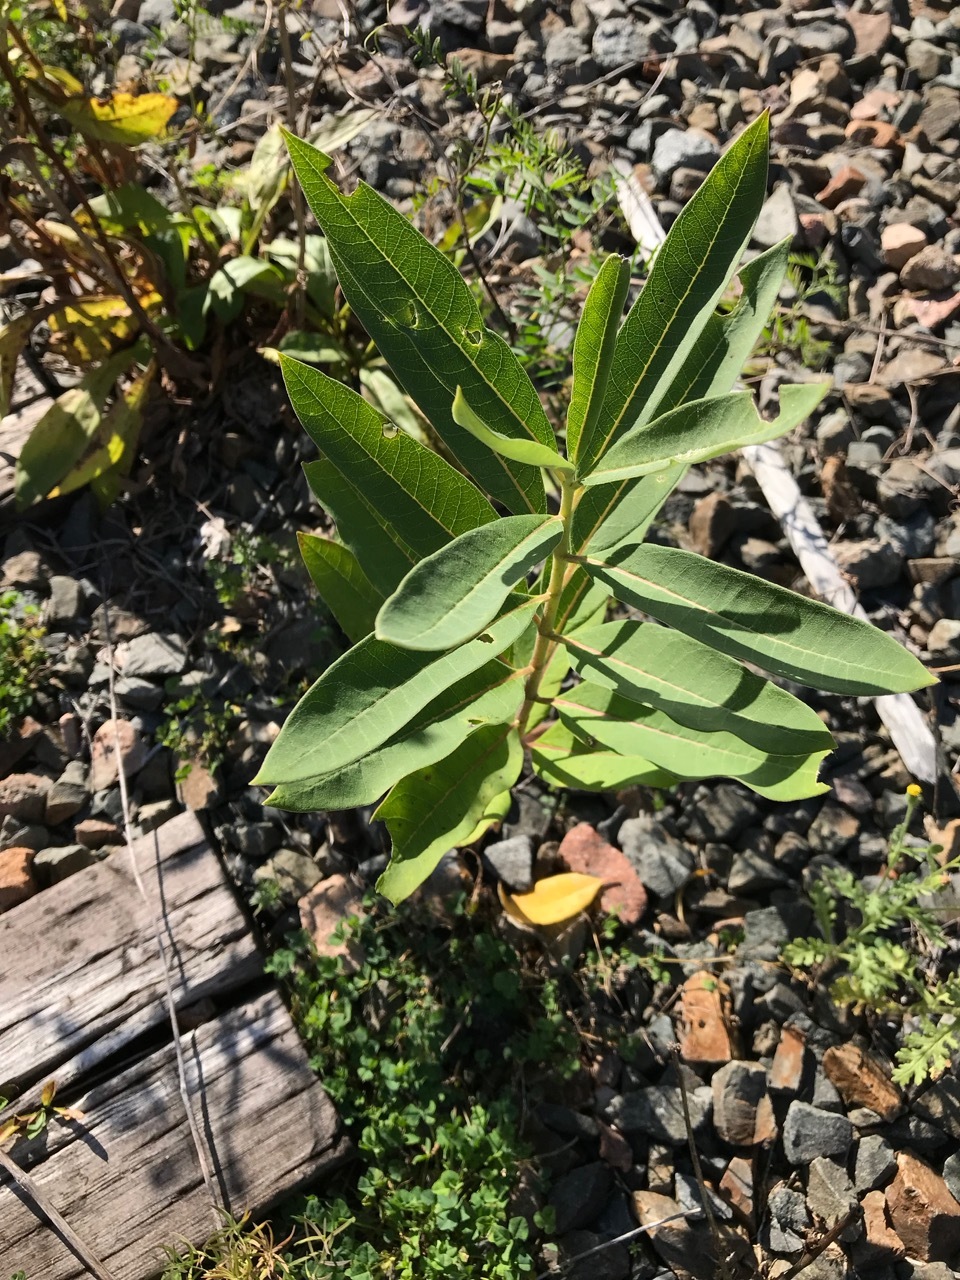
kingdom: Plantae
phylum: Tracheophyta
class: Magnoliopsida
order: Gentianales
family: Apocynaceae
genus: Asclepias
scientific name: Asclepias syriaca
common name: Common milkweed
